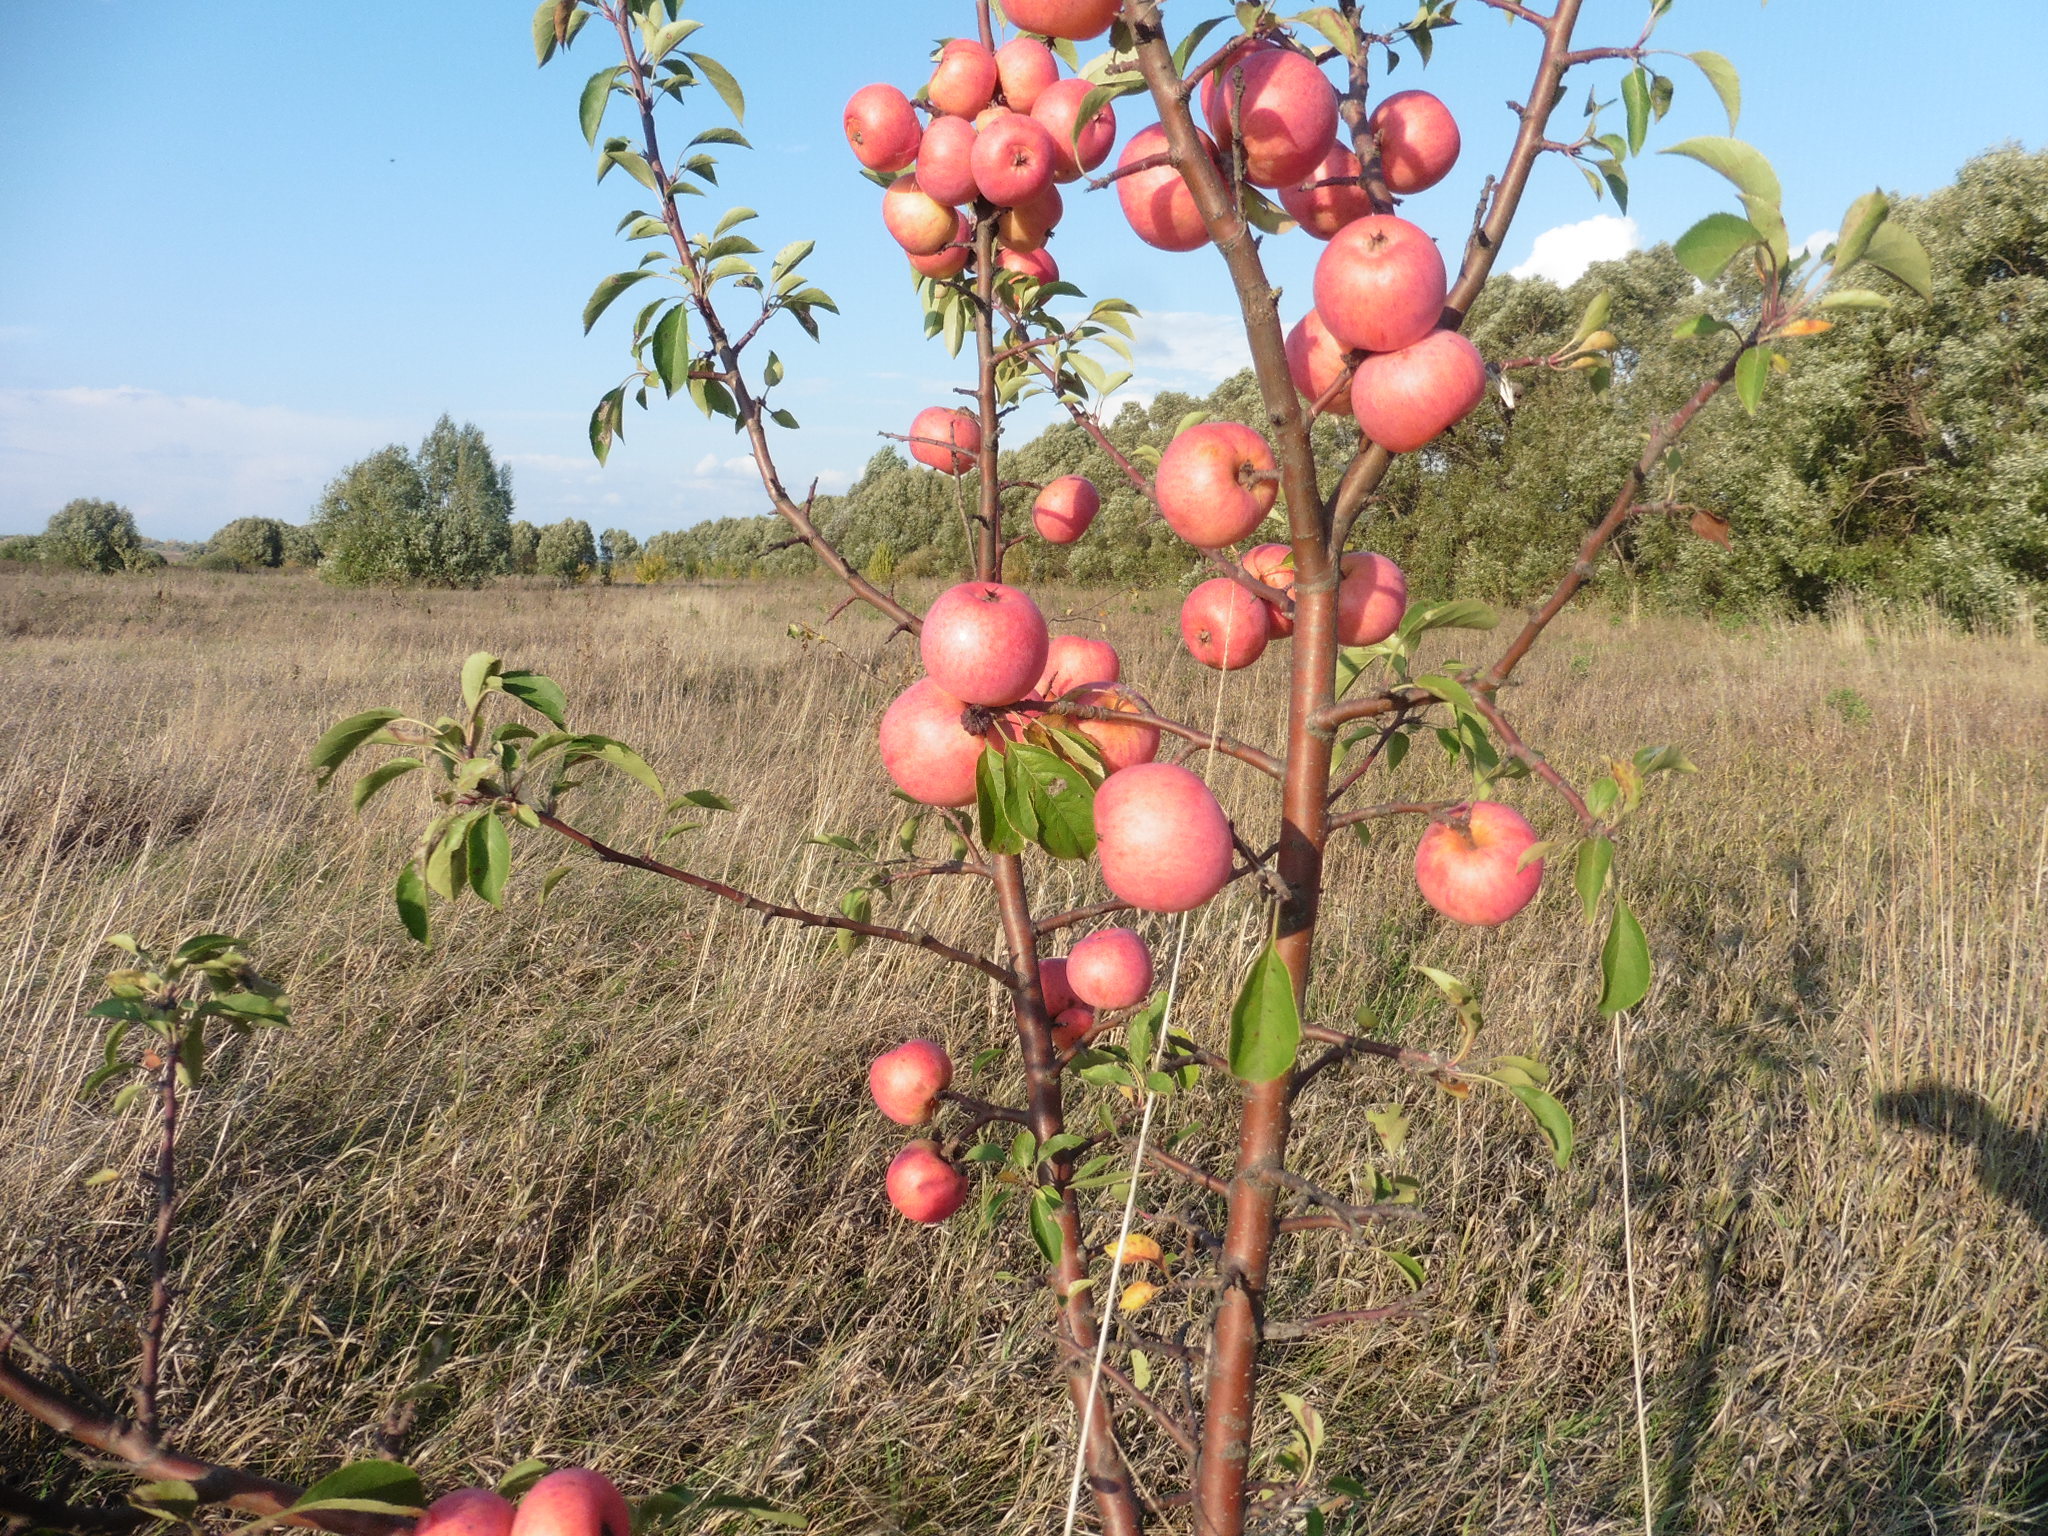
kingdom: Plantae
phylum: Tracheophyta
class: Magnoliopsida
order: Rosales
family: Rosaceae
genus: Malus
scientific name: Malus domestica
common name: Apple
